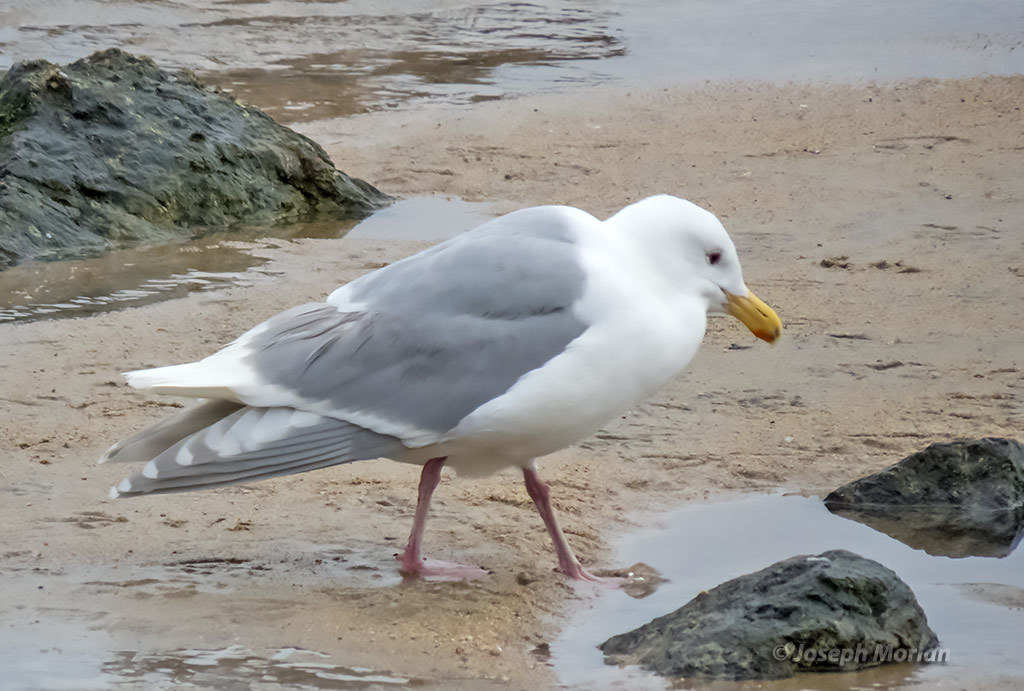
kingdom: Animalia
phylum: Chordata
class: Aves
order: Charadriiformes
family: Laridae
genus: Larus
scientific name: Larus glaucescens
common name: Glaucous-winged gull
